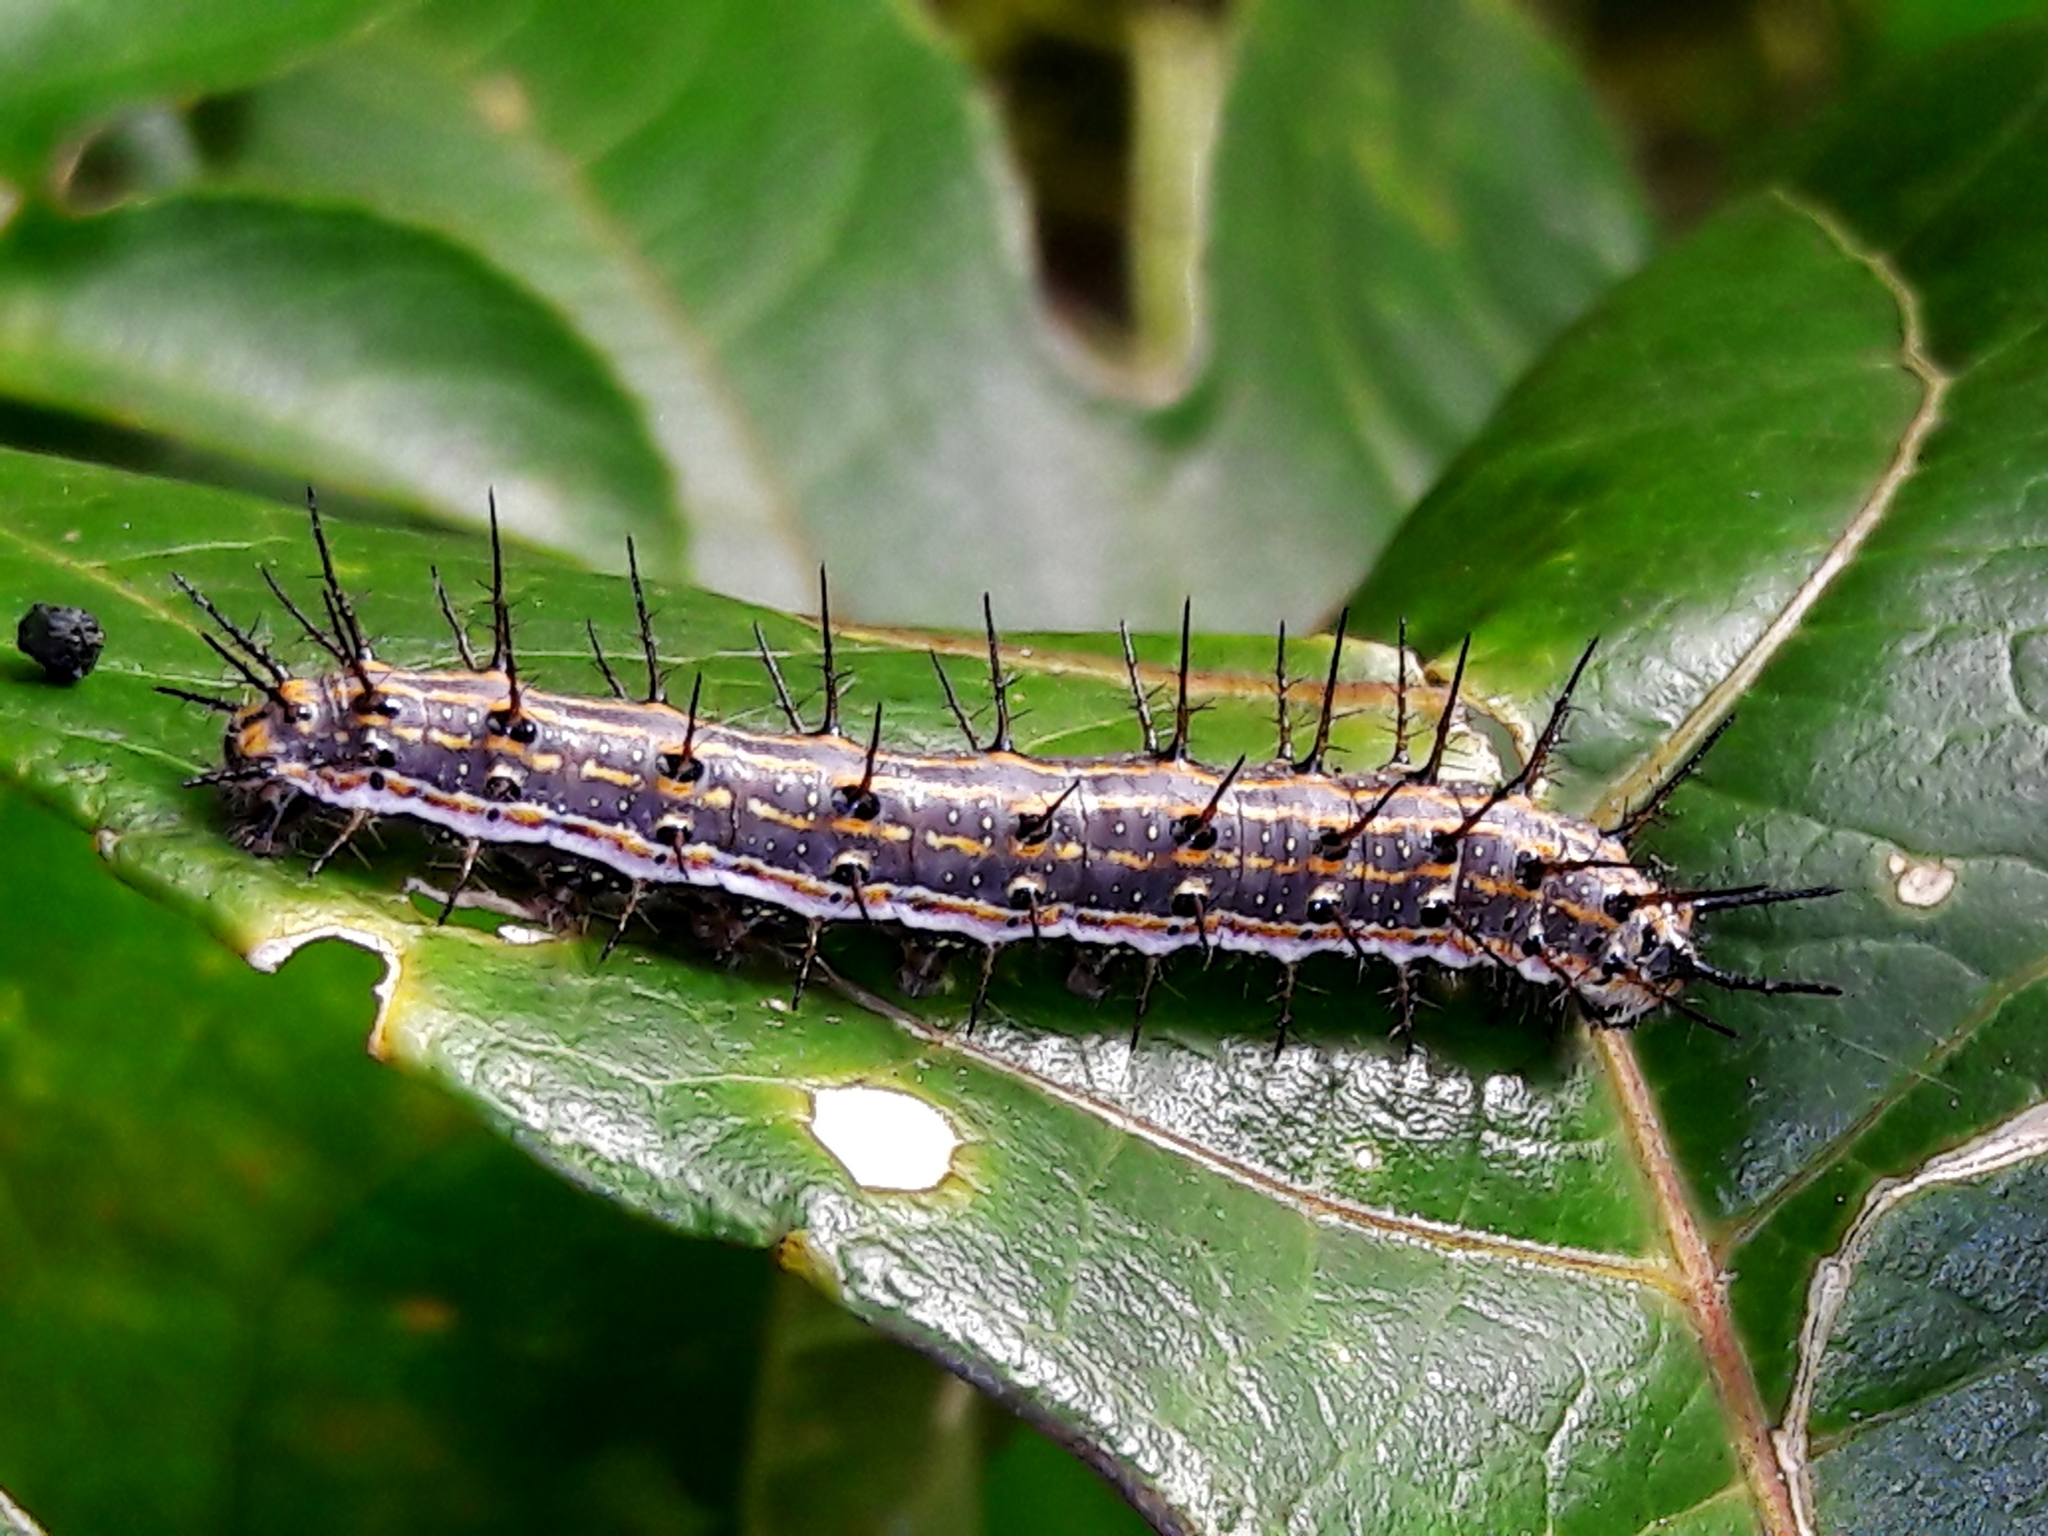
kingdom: Animalia
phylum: Arthropoda
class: Insecta
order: Lepidoptera
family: Nymphalidae
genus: Dione
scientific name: Dione vanillae
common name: Gulf fritillary
